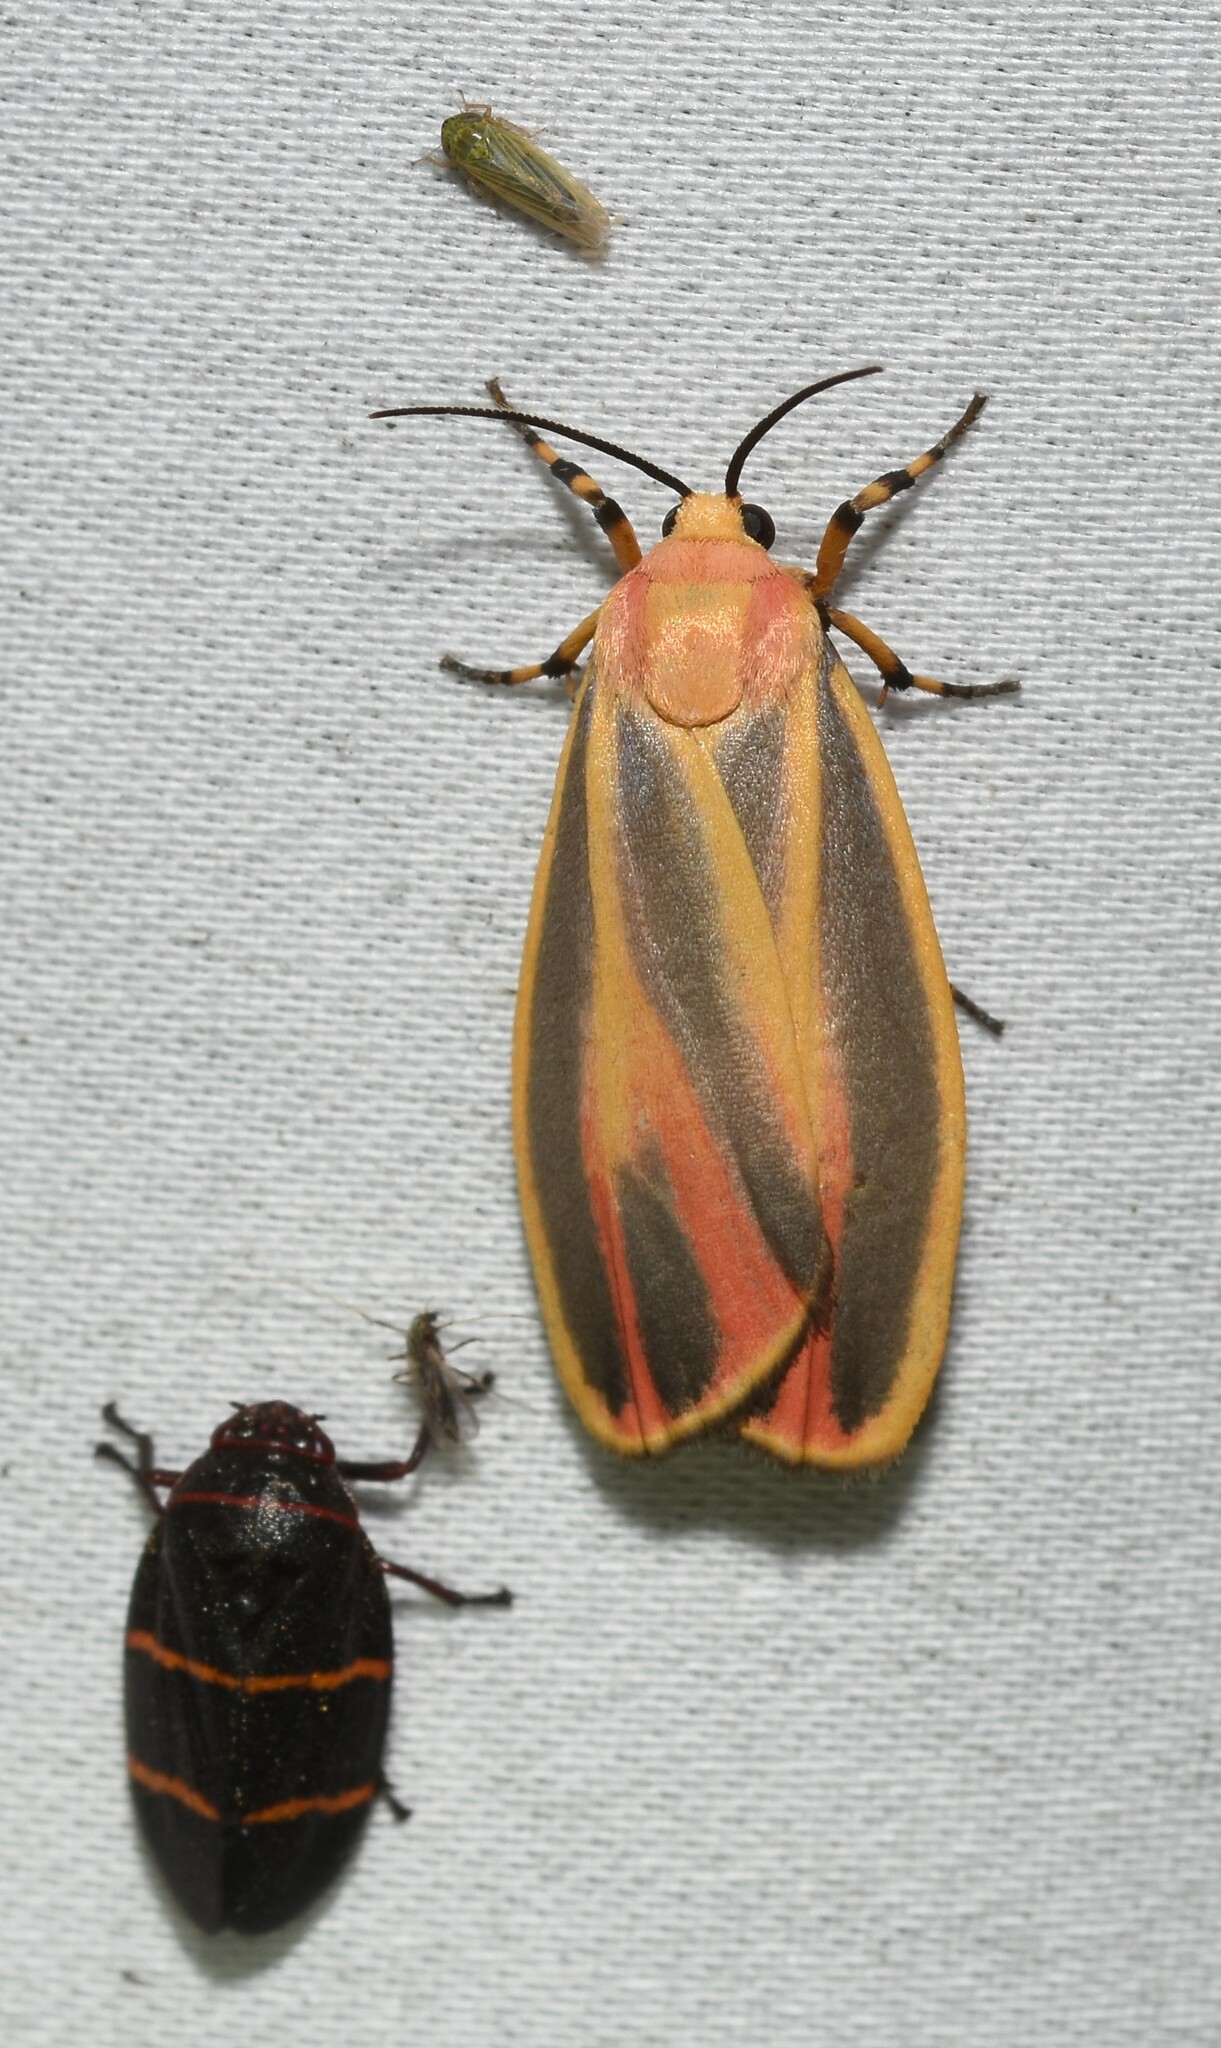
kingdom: Animalia
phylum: Arthropoda
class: Insecta
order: Lepidoptera
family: Erebidae
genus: Hypoprepia
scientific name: Hypoprepia fucosa
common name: Painted lichen moth
